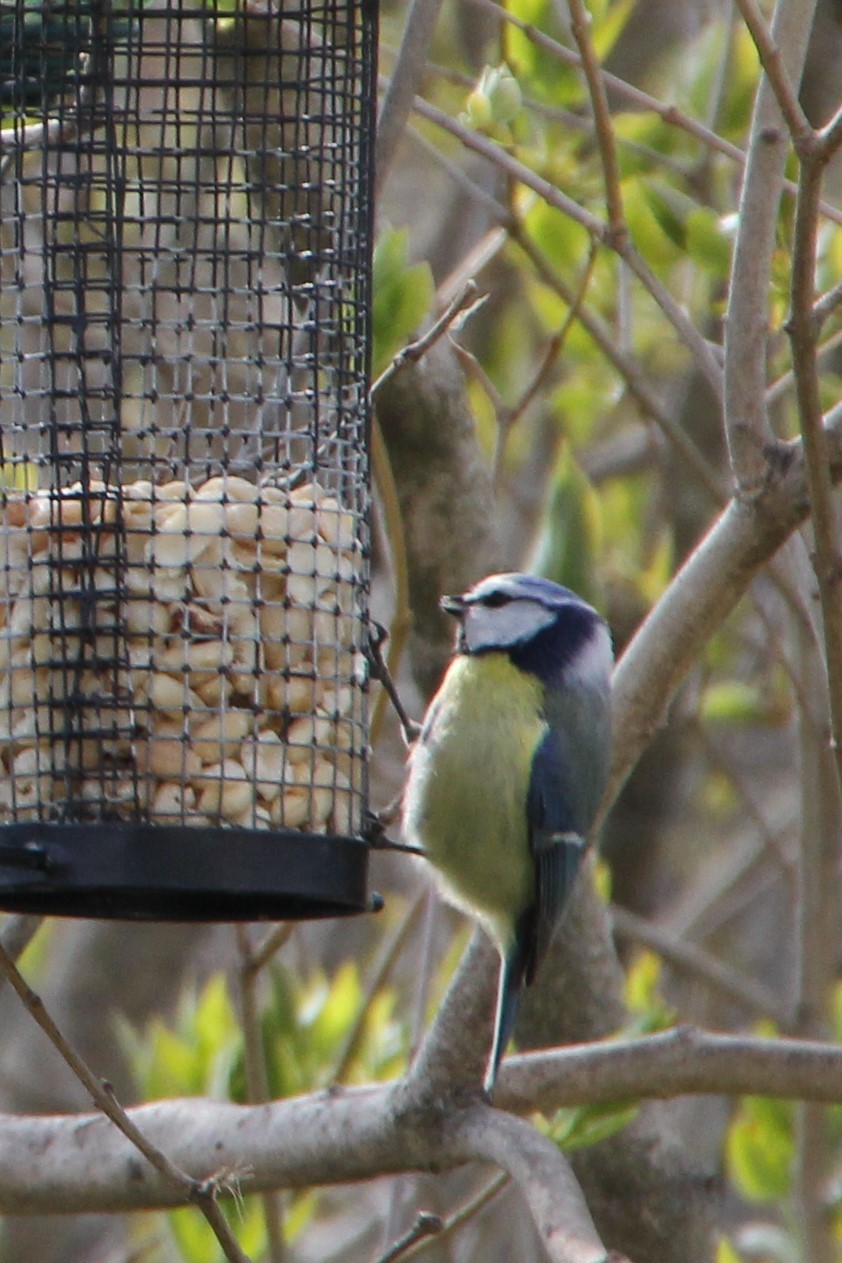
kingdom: Animalia
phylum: Chordata
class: Aves
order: Passeriformes
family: Paridae
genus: Cyanistes
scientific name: Cyanistes caeruleus
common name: Eurasian blue tit
